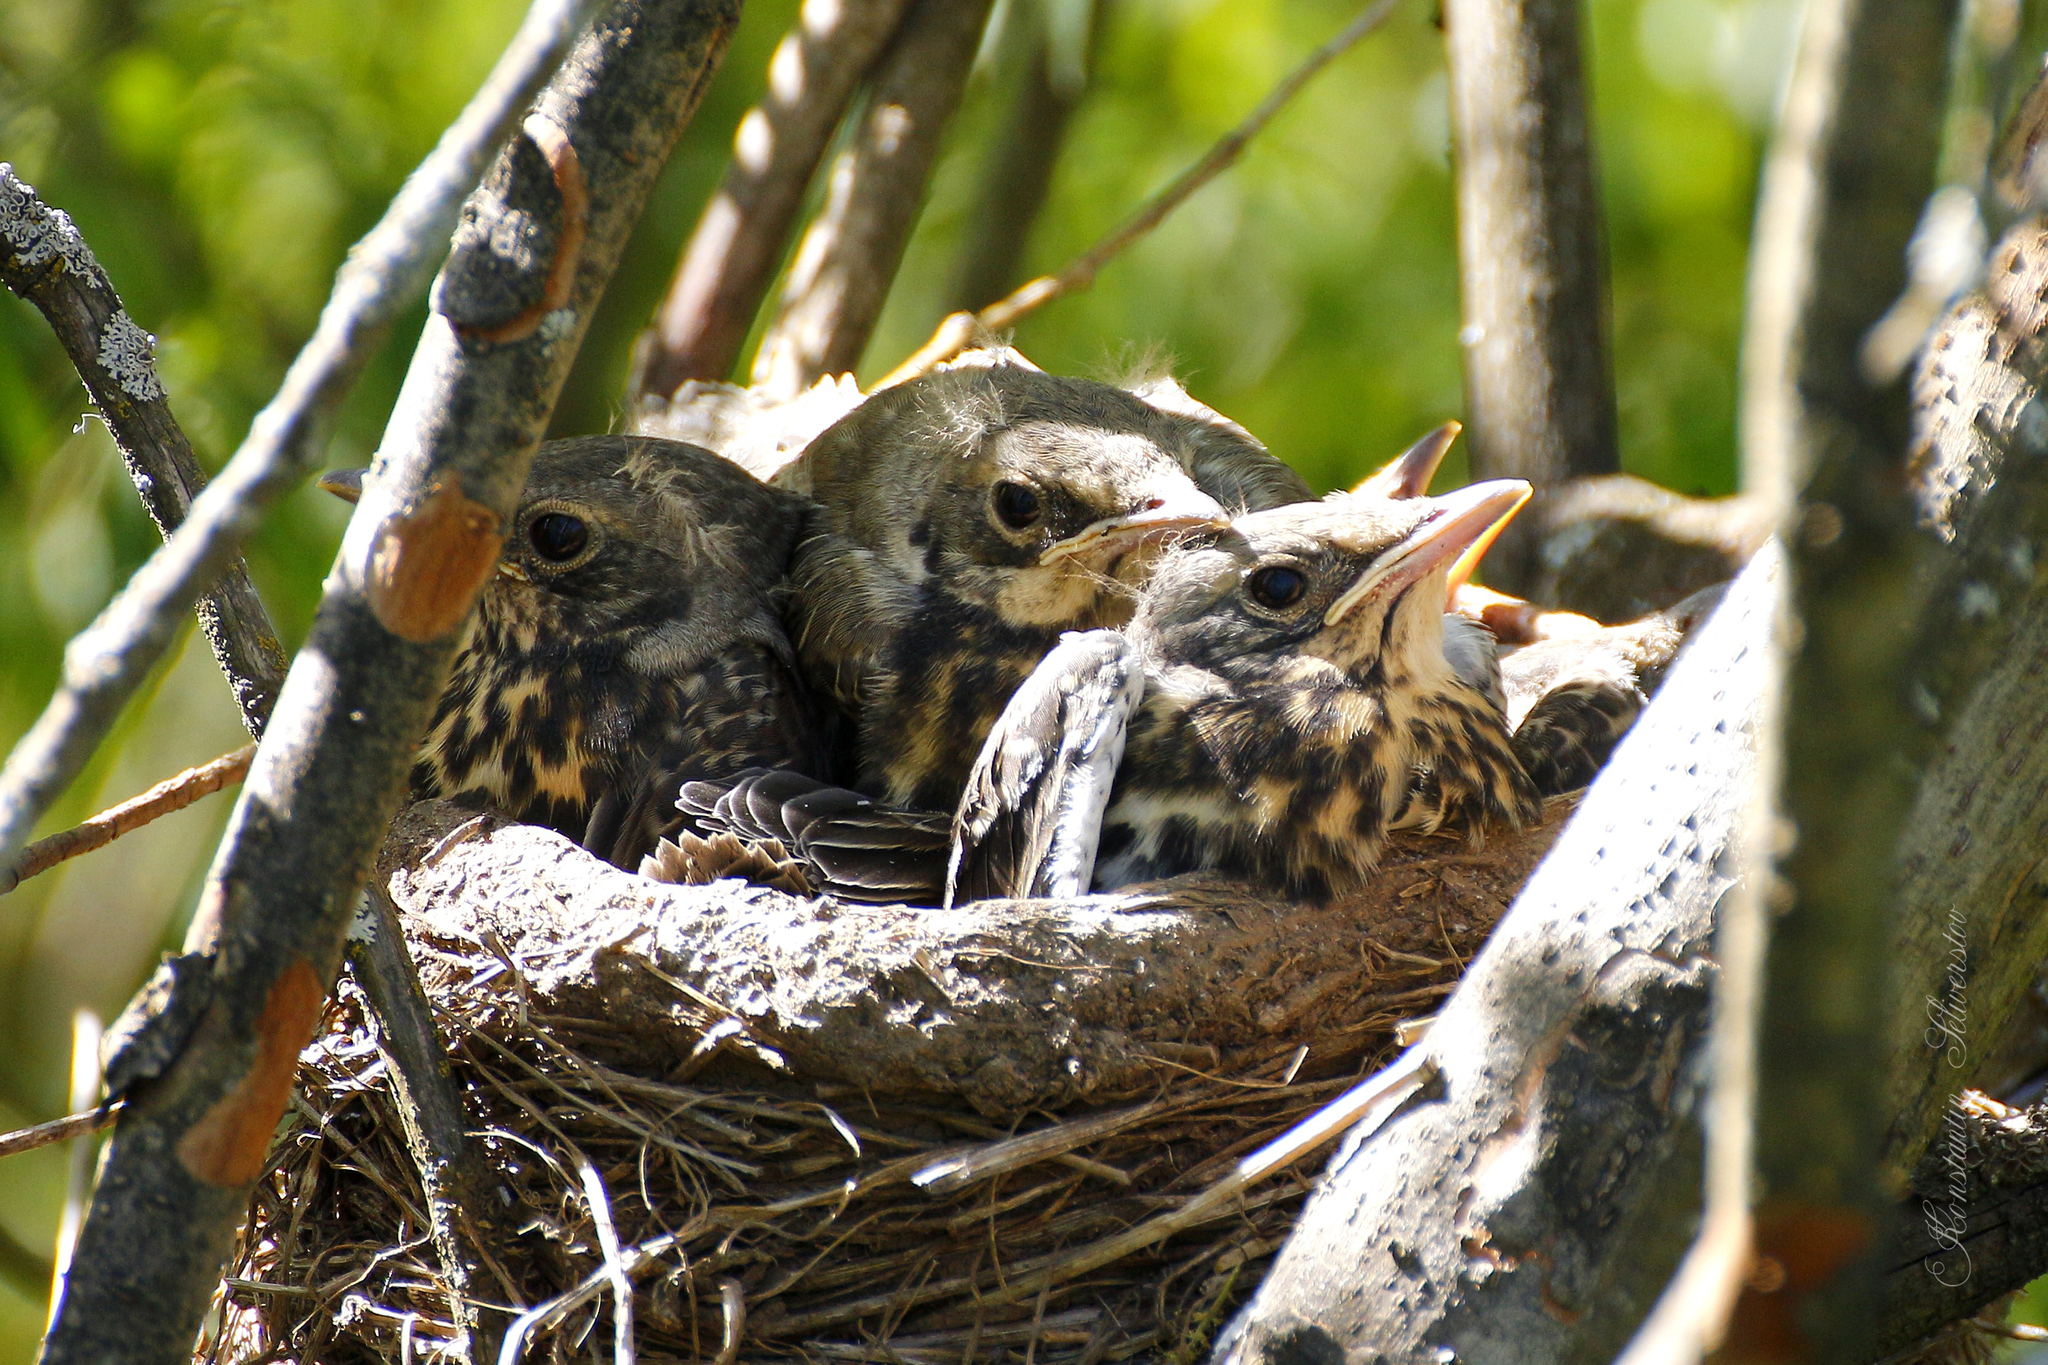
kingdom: Animalia
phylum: Chordata
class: Aves
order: Passeriformes
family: Turdidae
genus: Turdus
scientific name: Turdus pilaris
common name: Fieldfare
